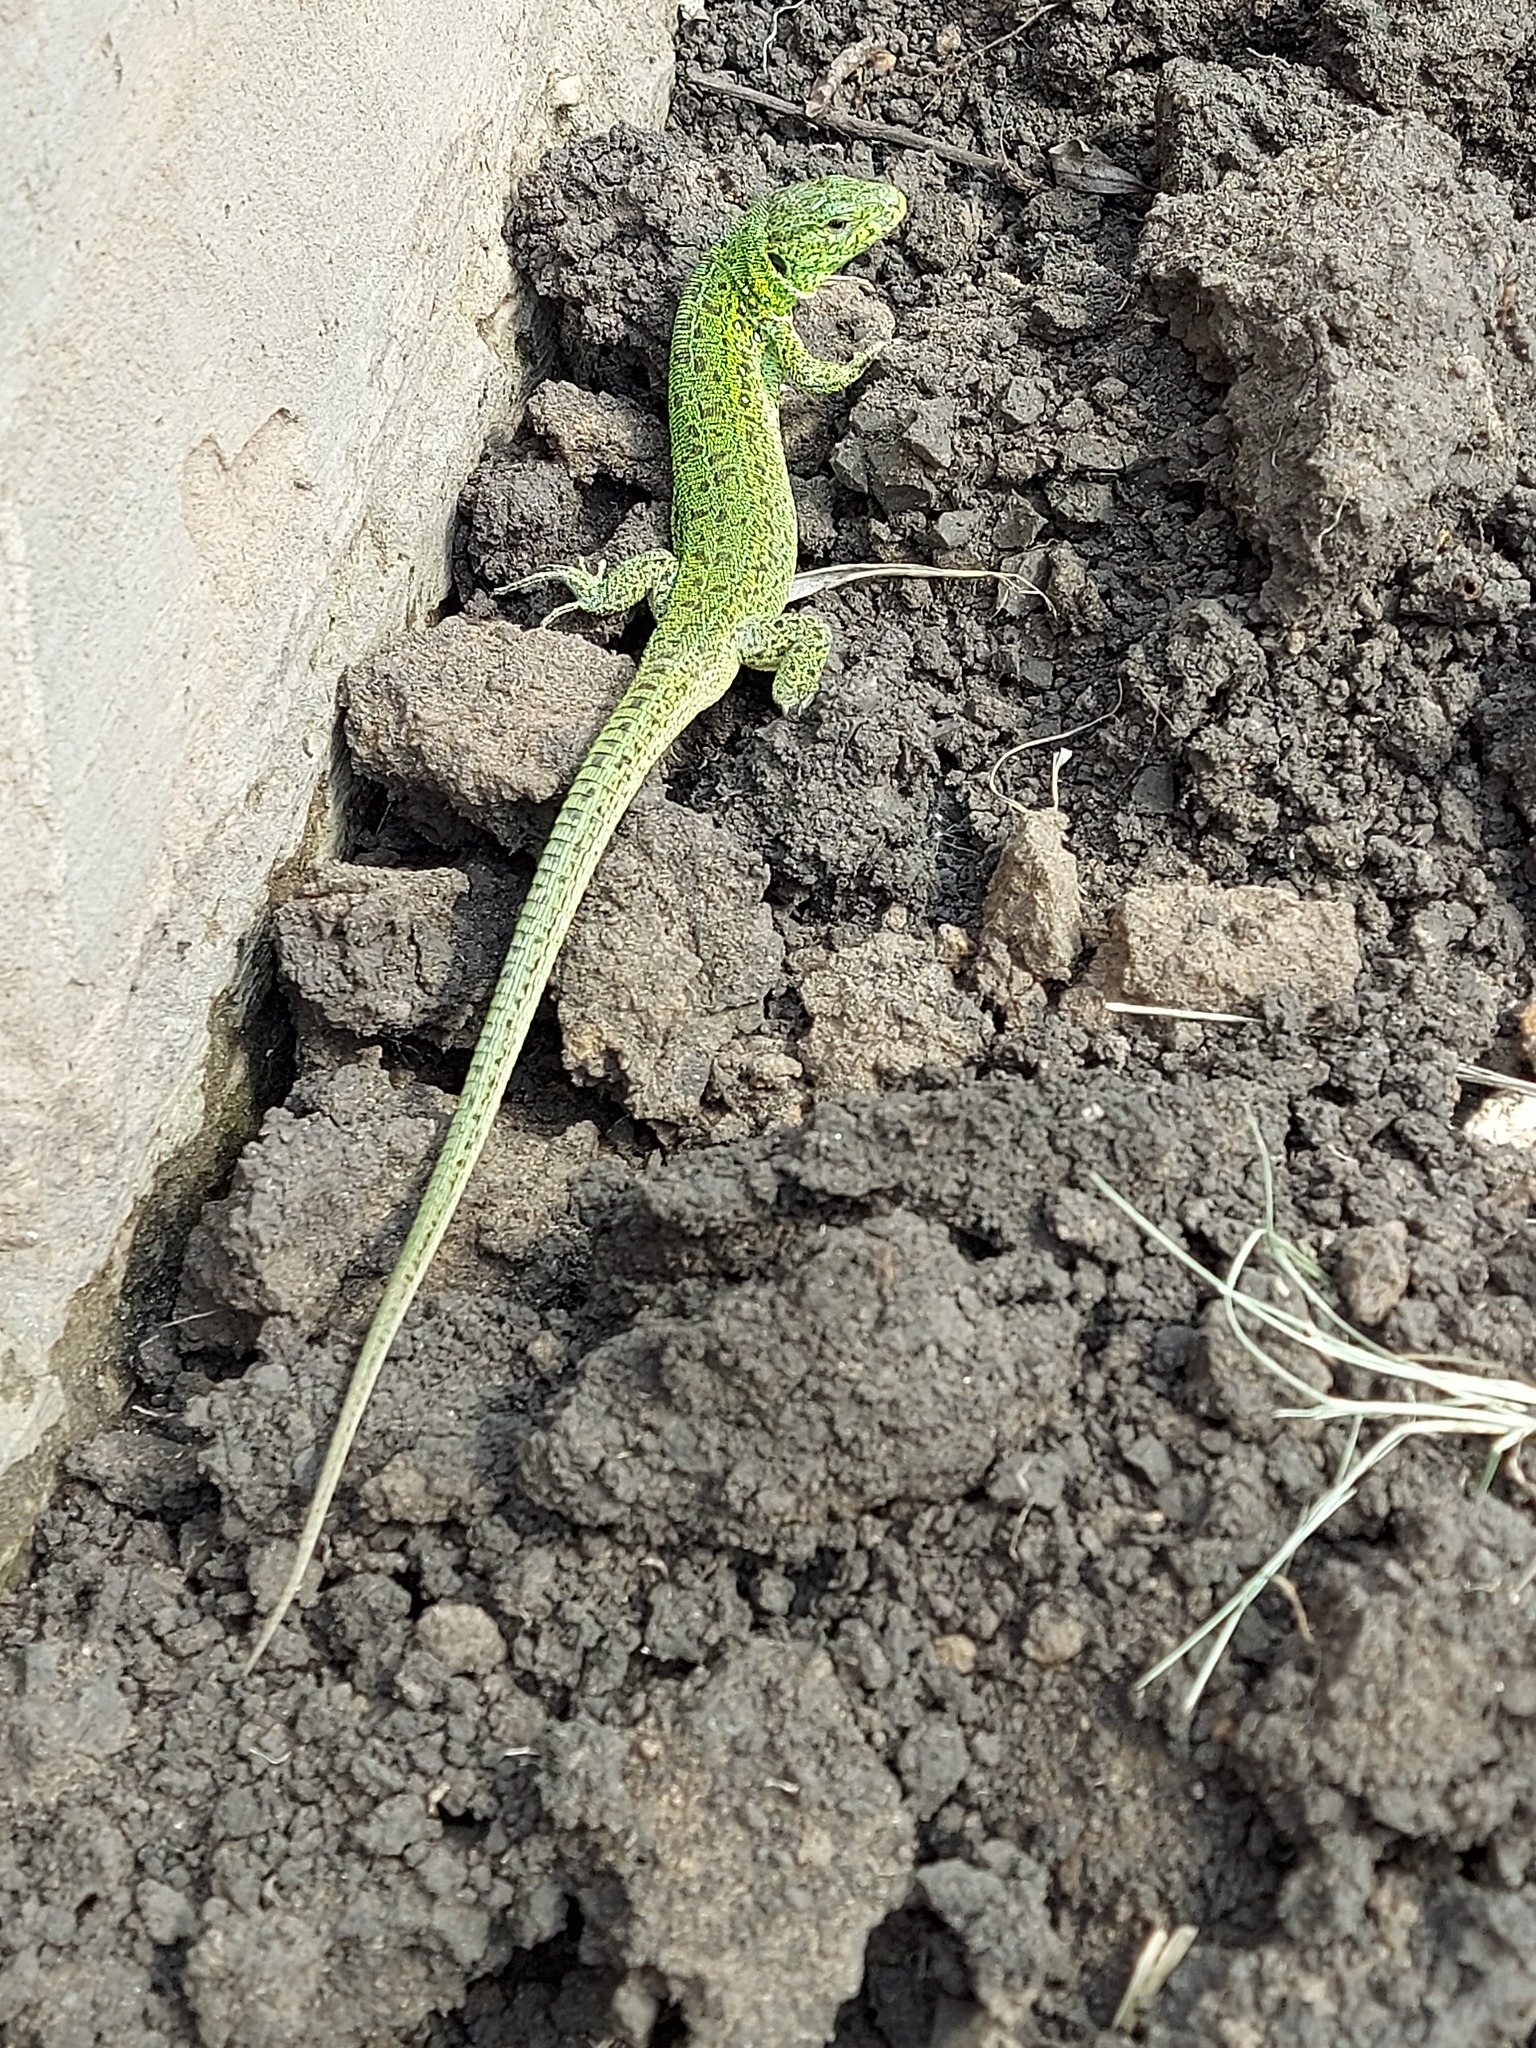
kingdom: Animalia
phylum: Chordata
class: Squamata
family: Lacertidae
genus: Lacerta
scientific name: Lacerta agilis
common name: Sand lizard
